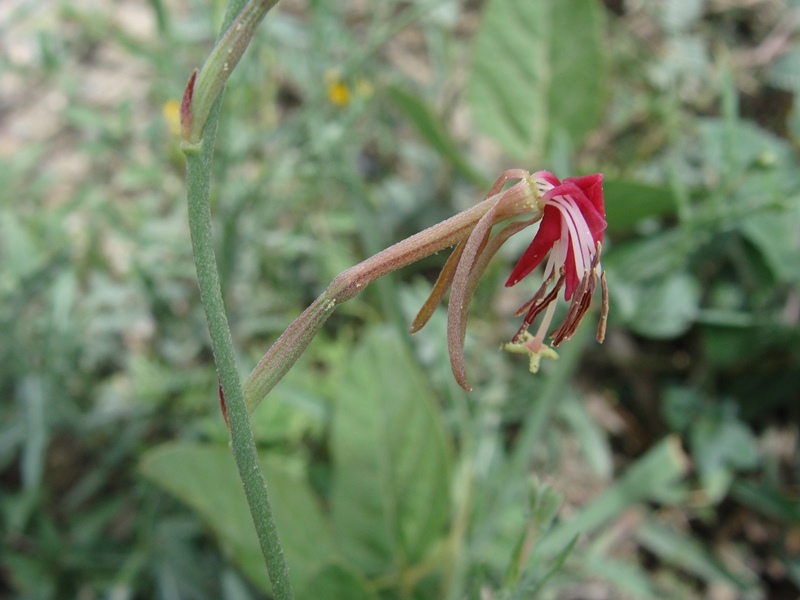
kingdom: Plantae
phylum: Tracheophyta
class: Magnoliopsida
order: Myrtales
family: Onagraceae
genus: Oenothera
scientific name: Oenothera suffrutescens
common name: Scarlet beeblossom
